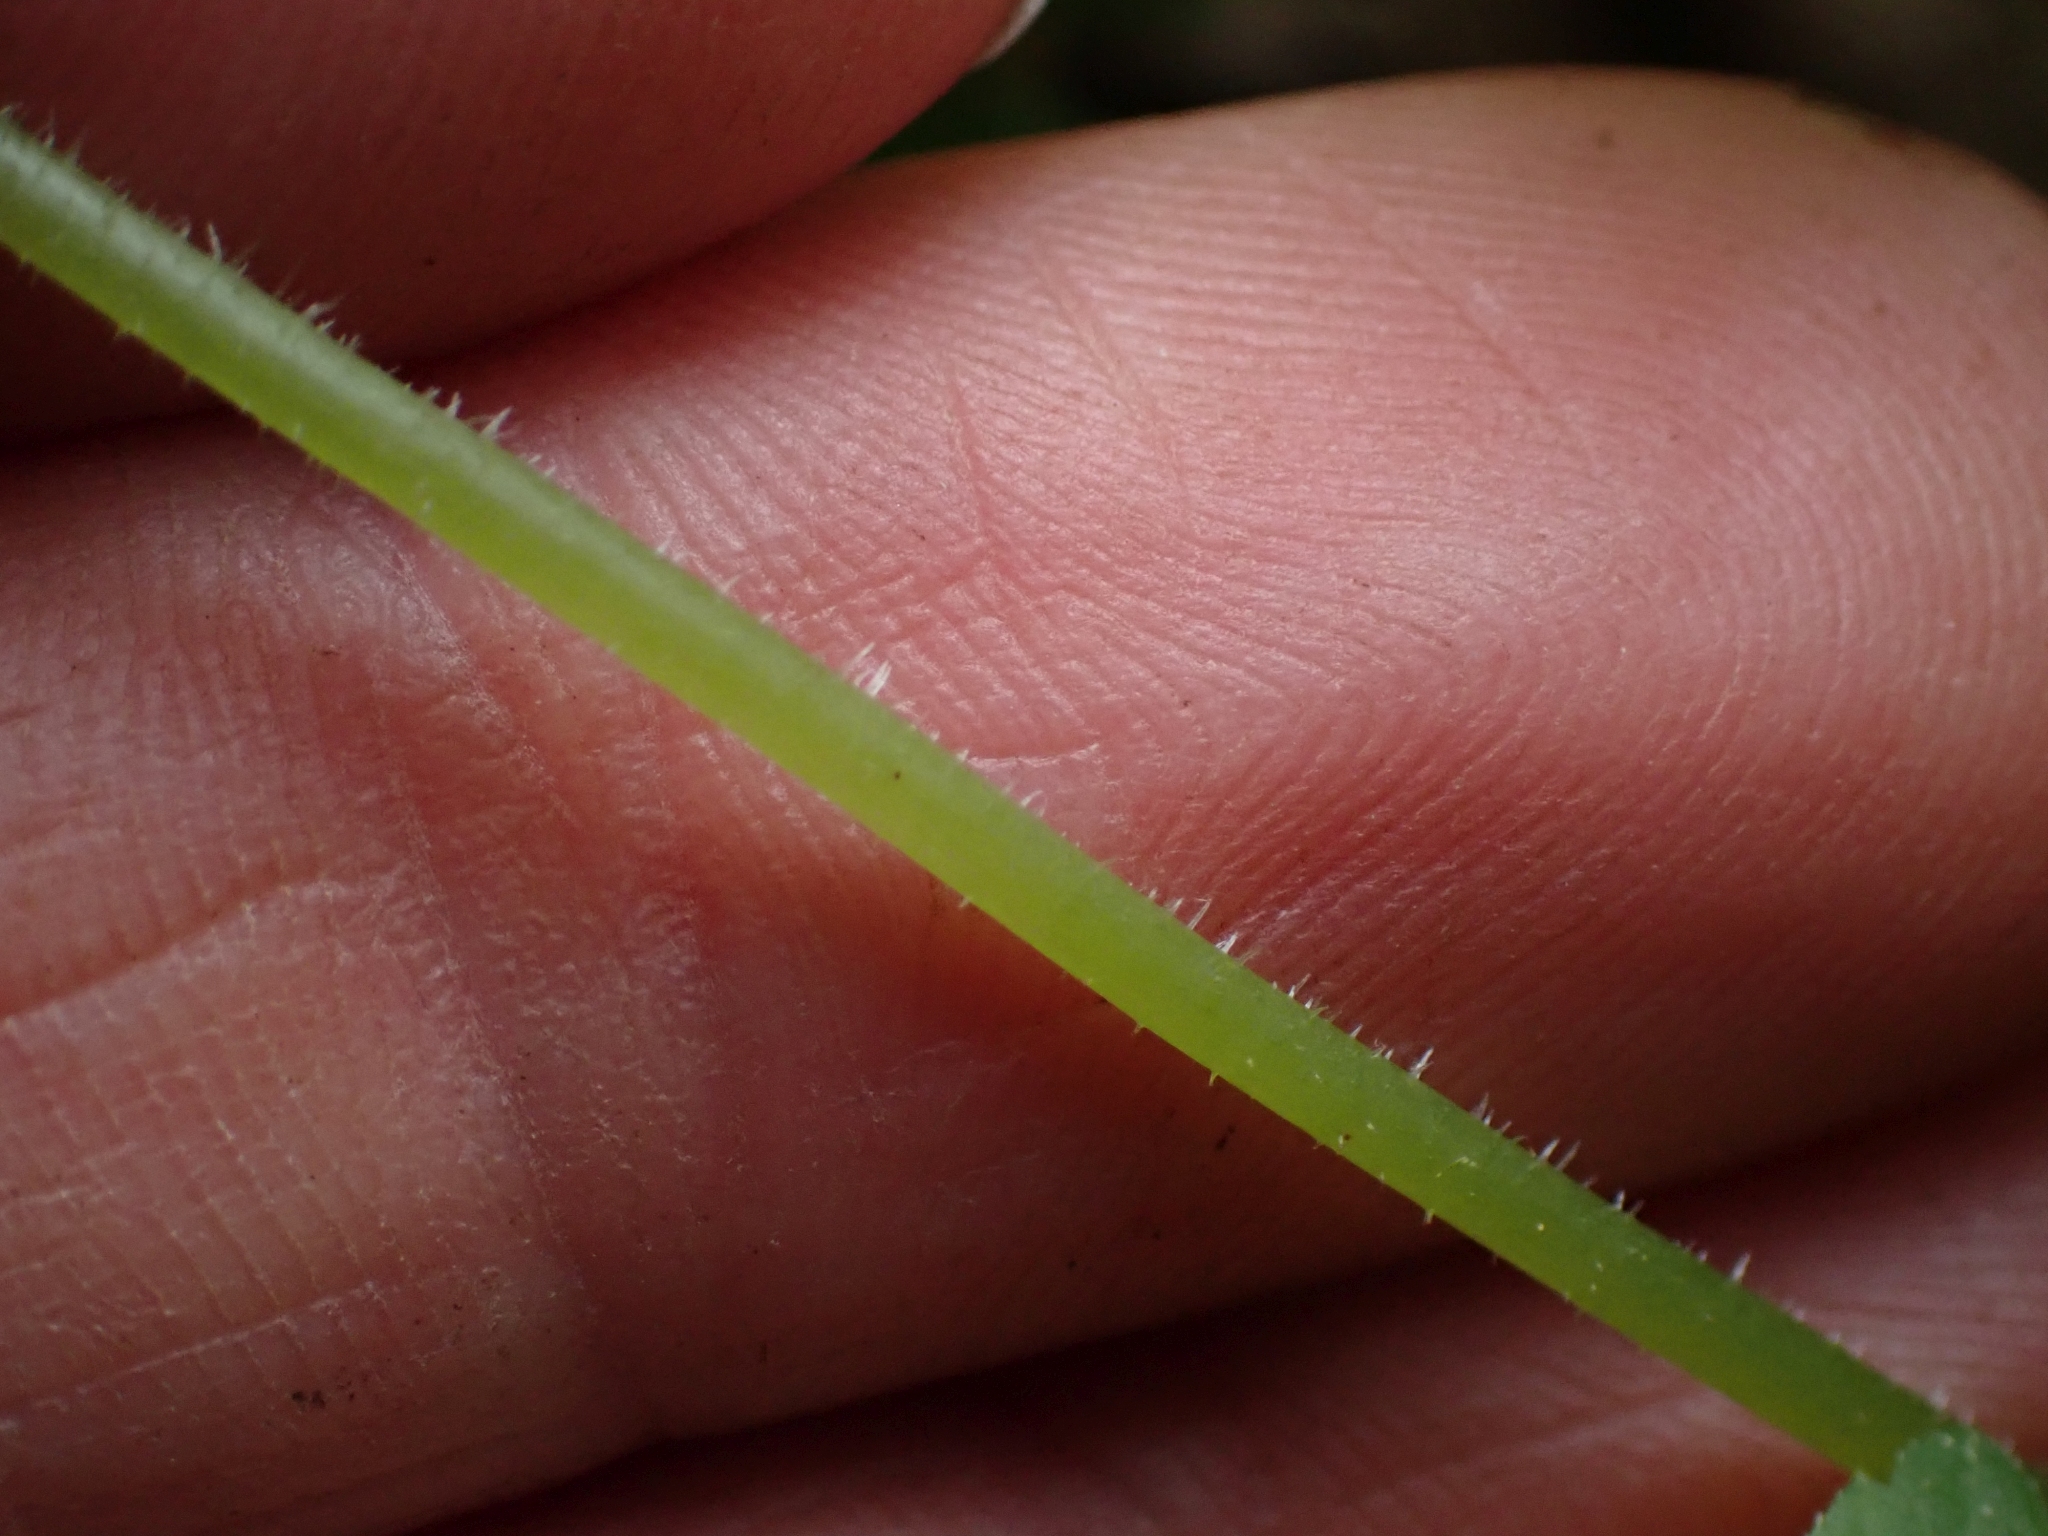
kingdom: Plantae
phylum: Tracheophyta
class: Magnoliopsida
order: Saxifragales
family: Saxifragaceae
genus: Tiarella
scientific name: Tiarella trifoliata
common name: Sugar-scoop
